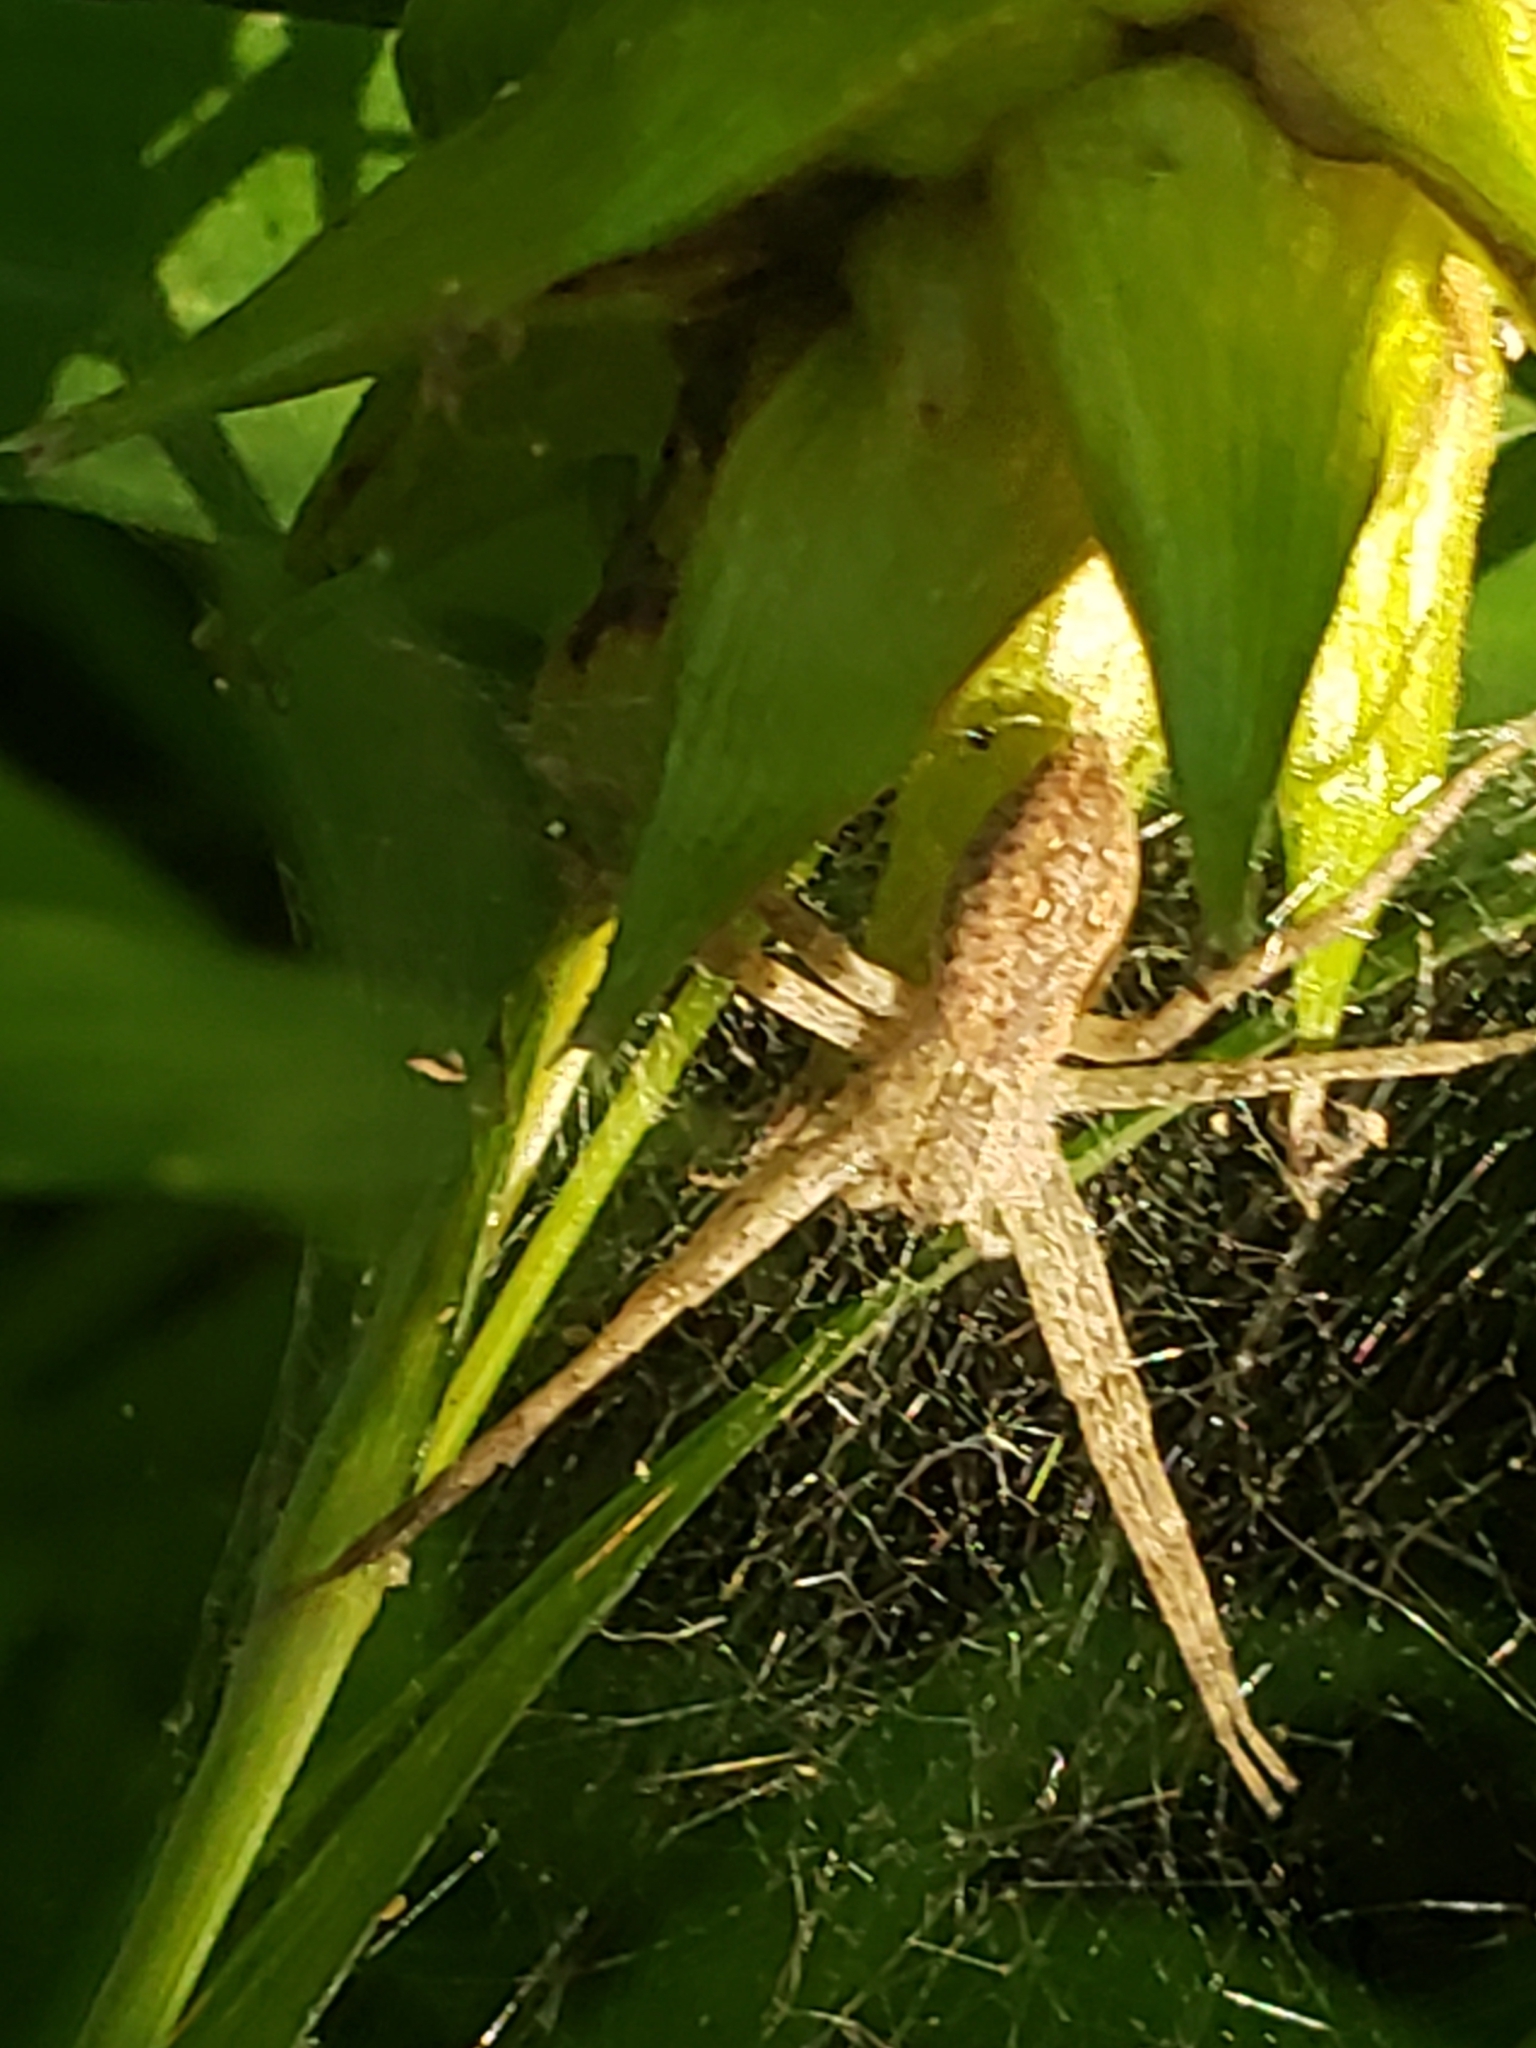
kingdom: Animalia
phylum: Arthropoda
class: Arachnida
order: Araneae
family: Pisauridae
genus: Pisaurina
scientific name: Pisaurina mira
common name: American nursery web spider
